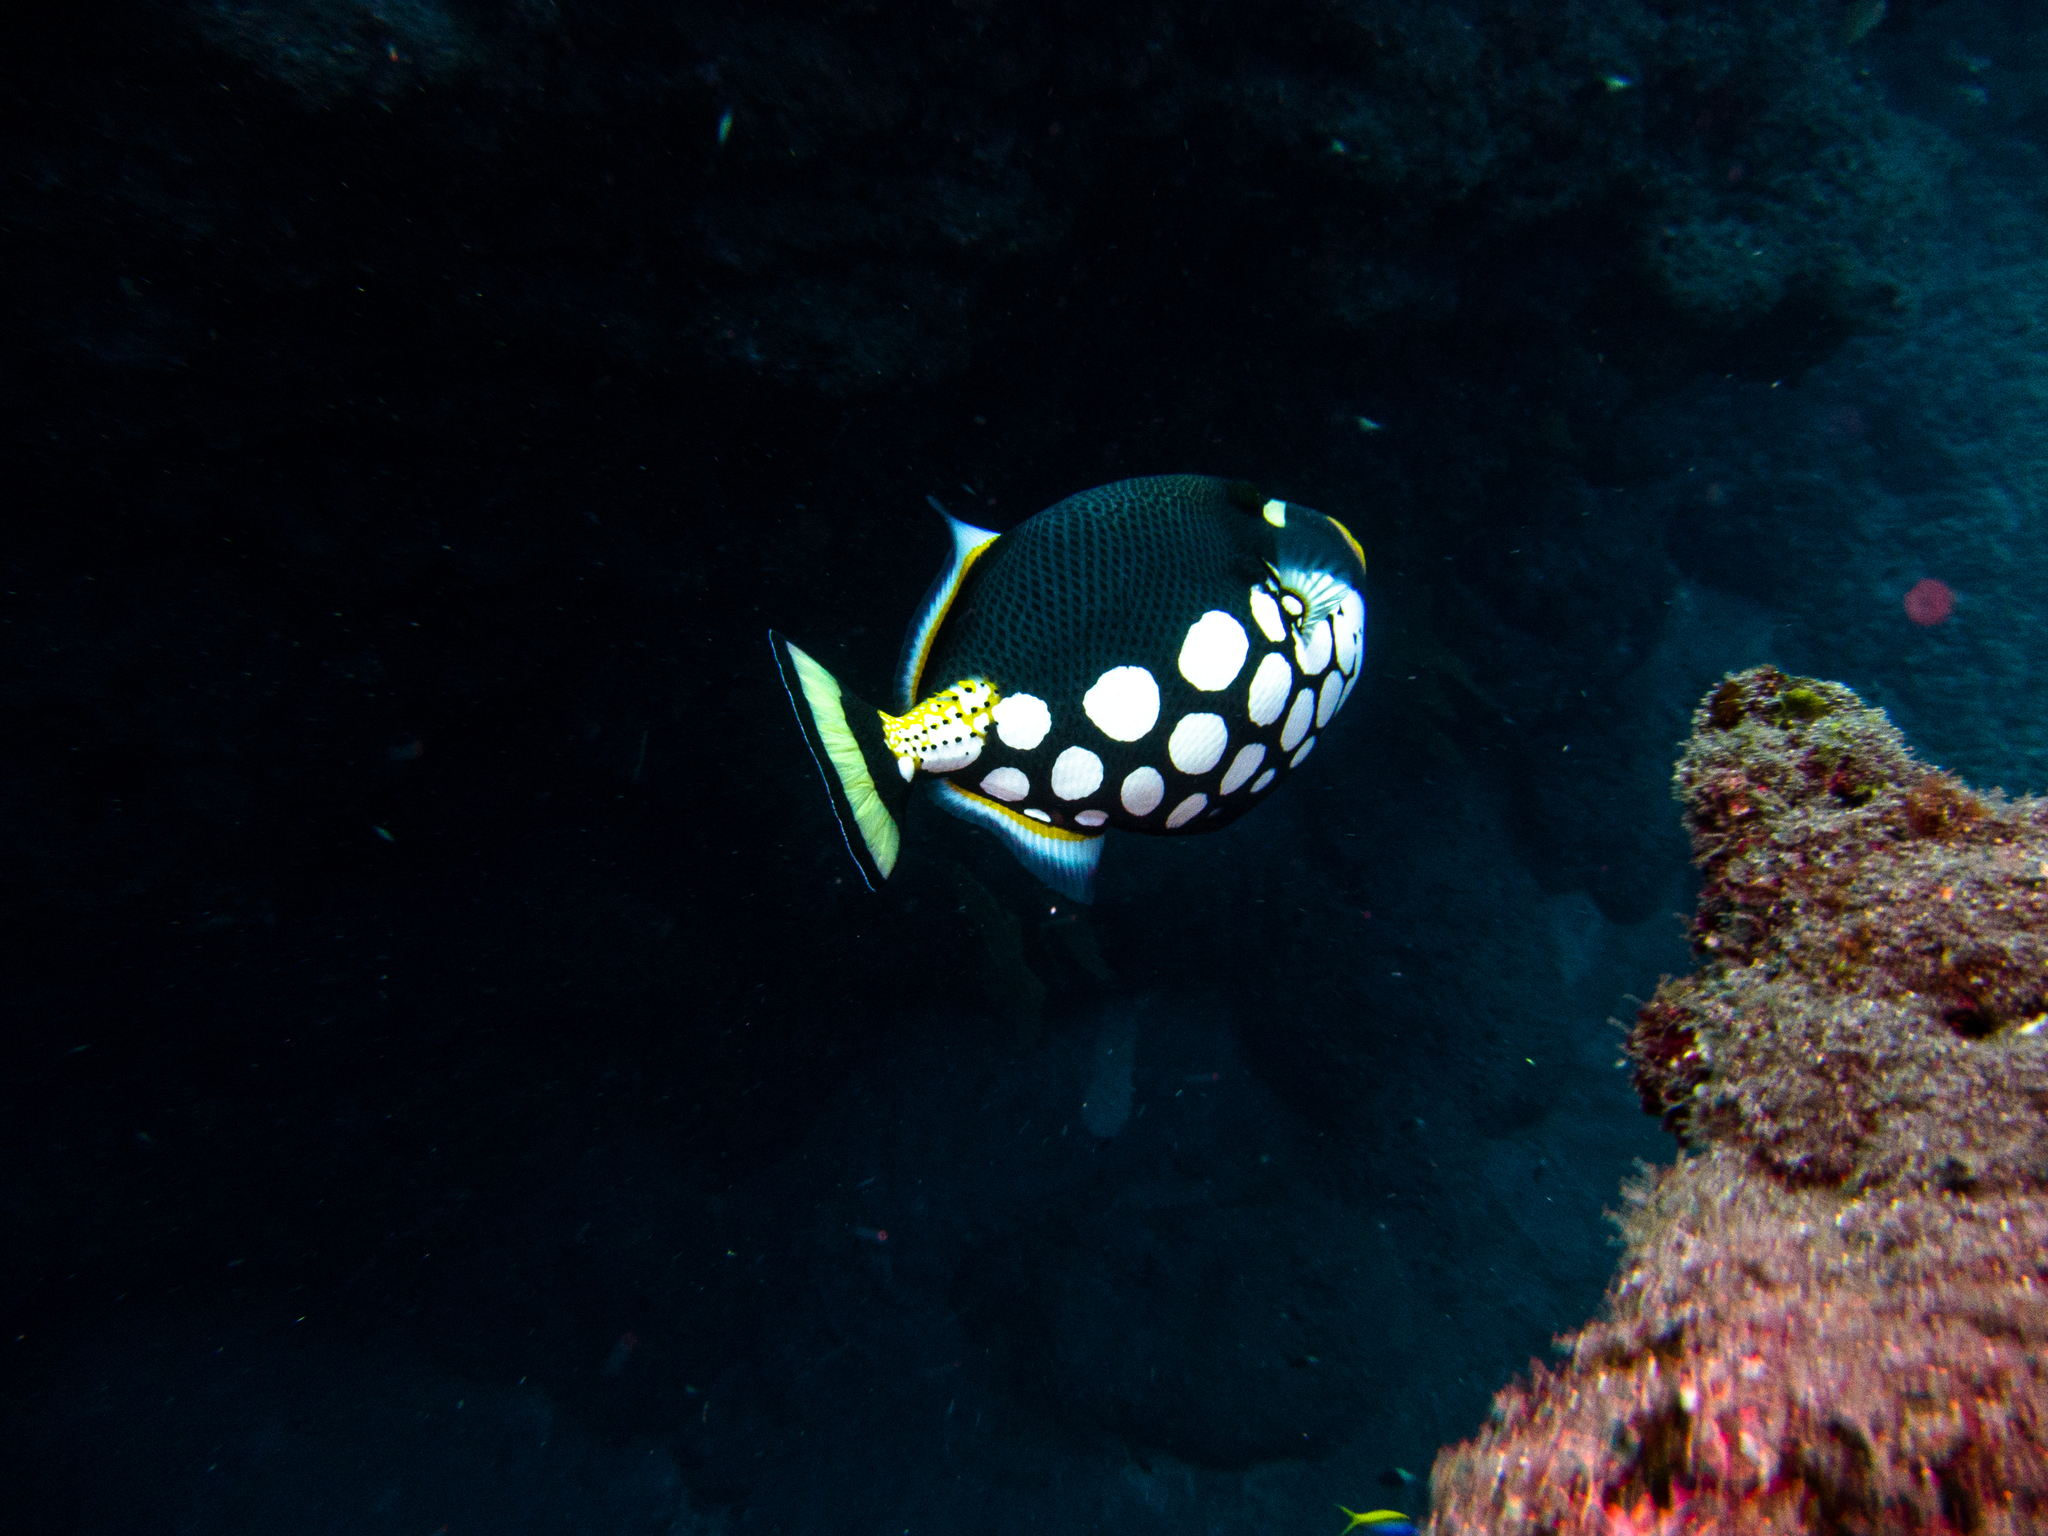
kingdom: Animalia
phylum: Chordata
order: Tetraodontiformes
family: Balistidae
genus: Balistoides
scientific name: Balistoides conspicillum
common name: Clown triggerfish
